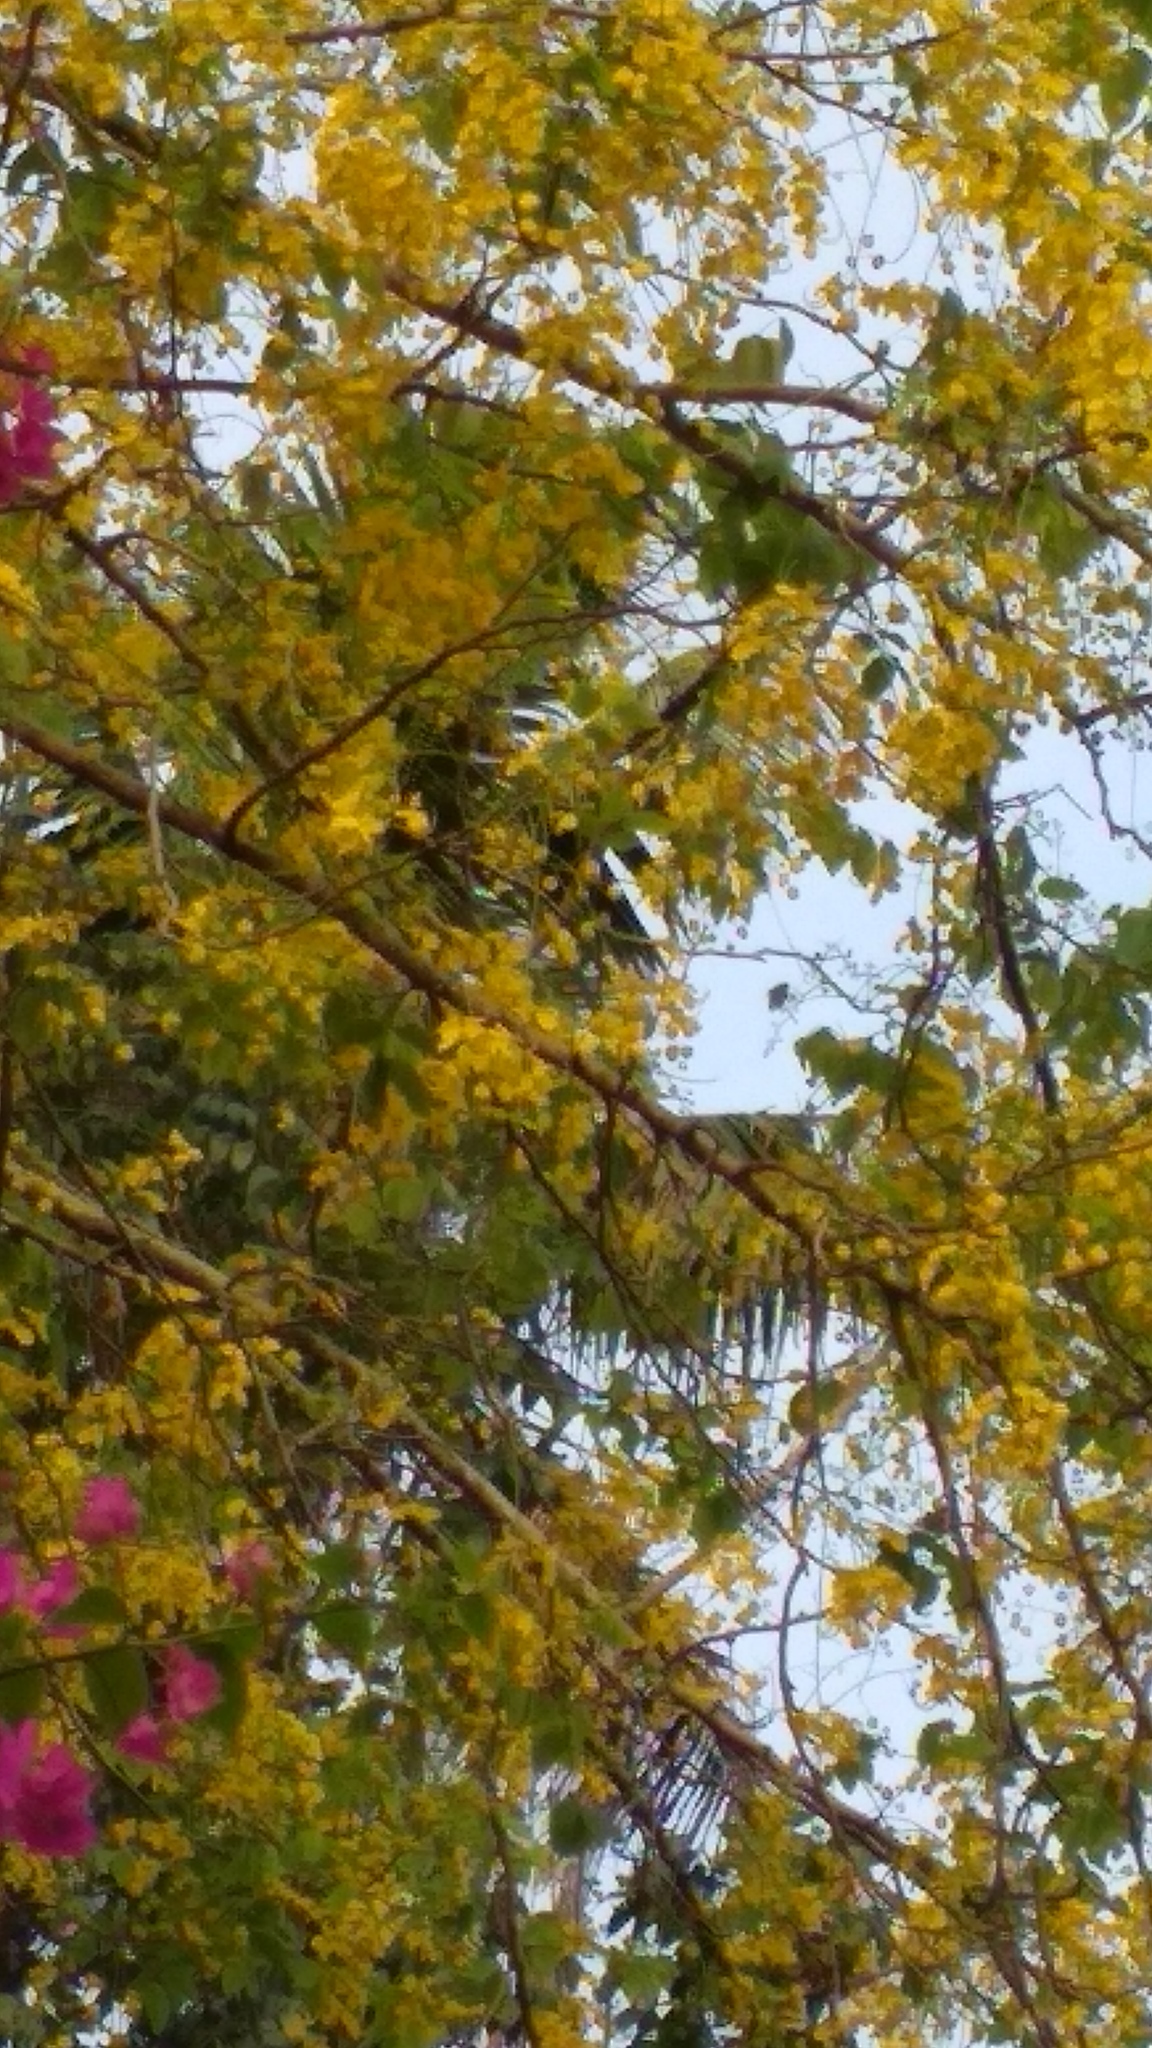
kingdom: Plantae
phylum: Tracheophyta
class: Magnoliopsida
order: Fabales
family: Fabaceae
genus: Cassia
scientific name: Cassia fistula
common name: Golden shower
